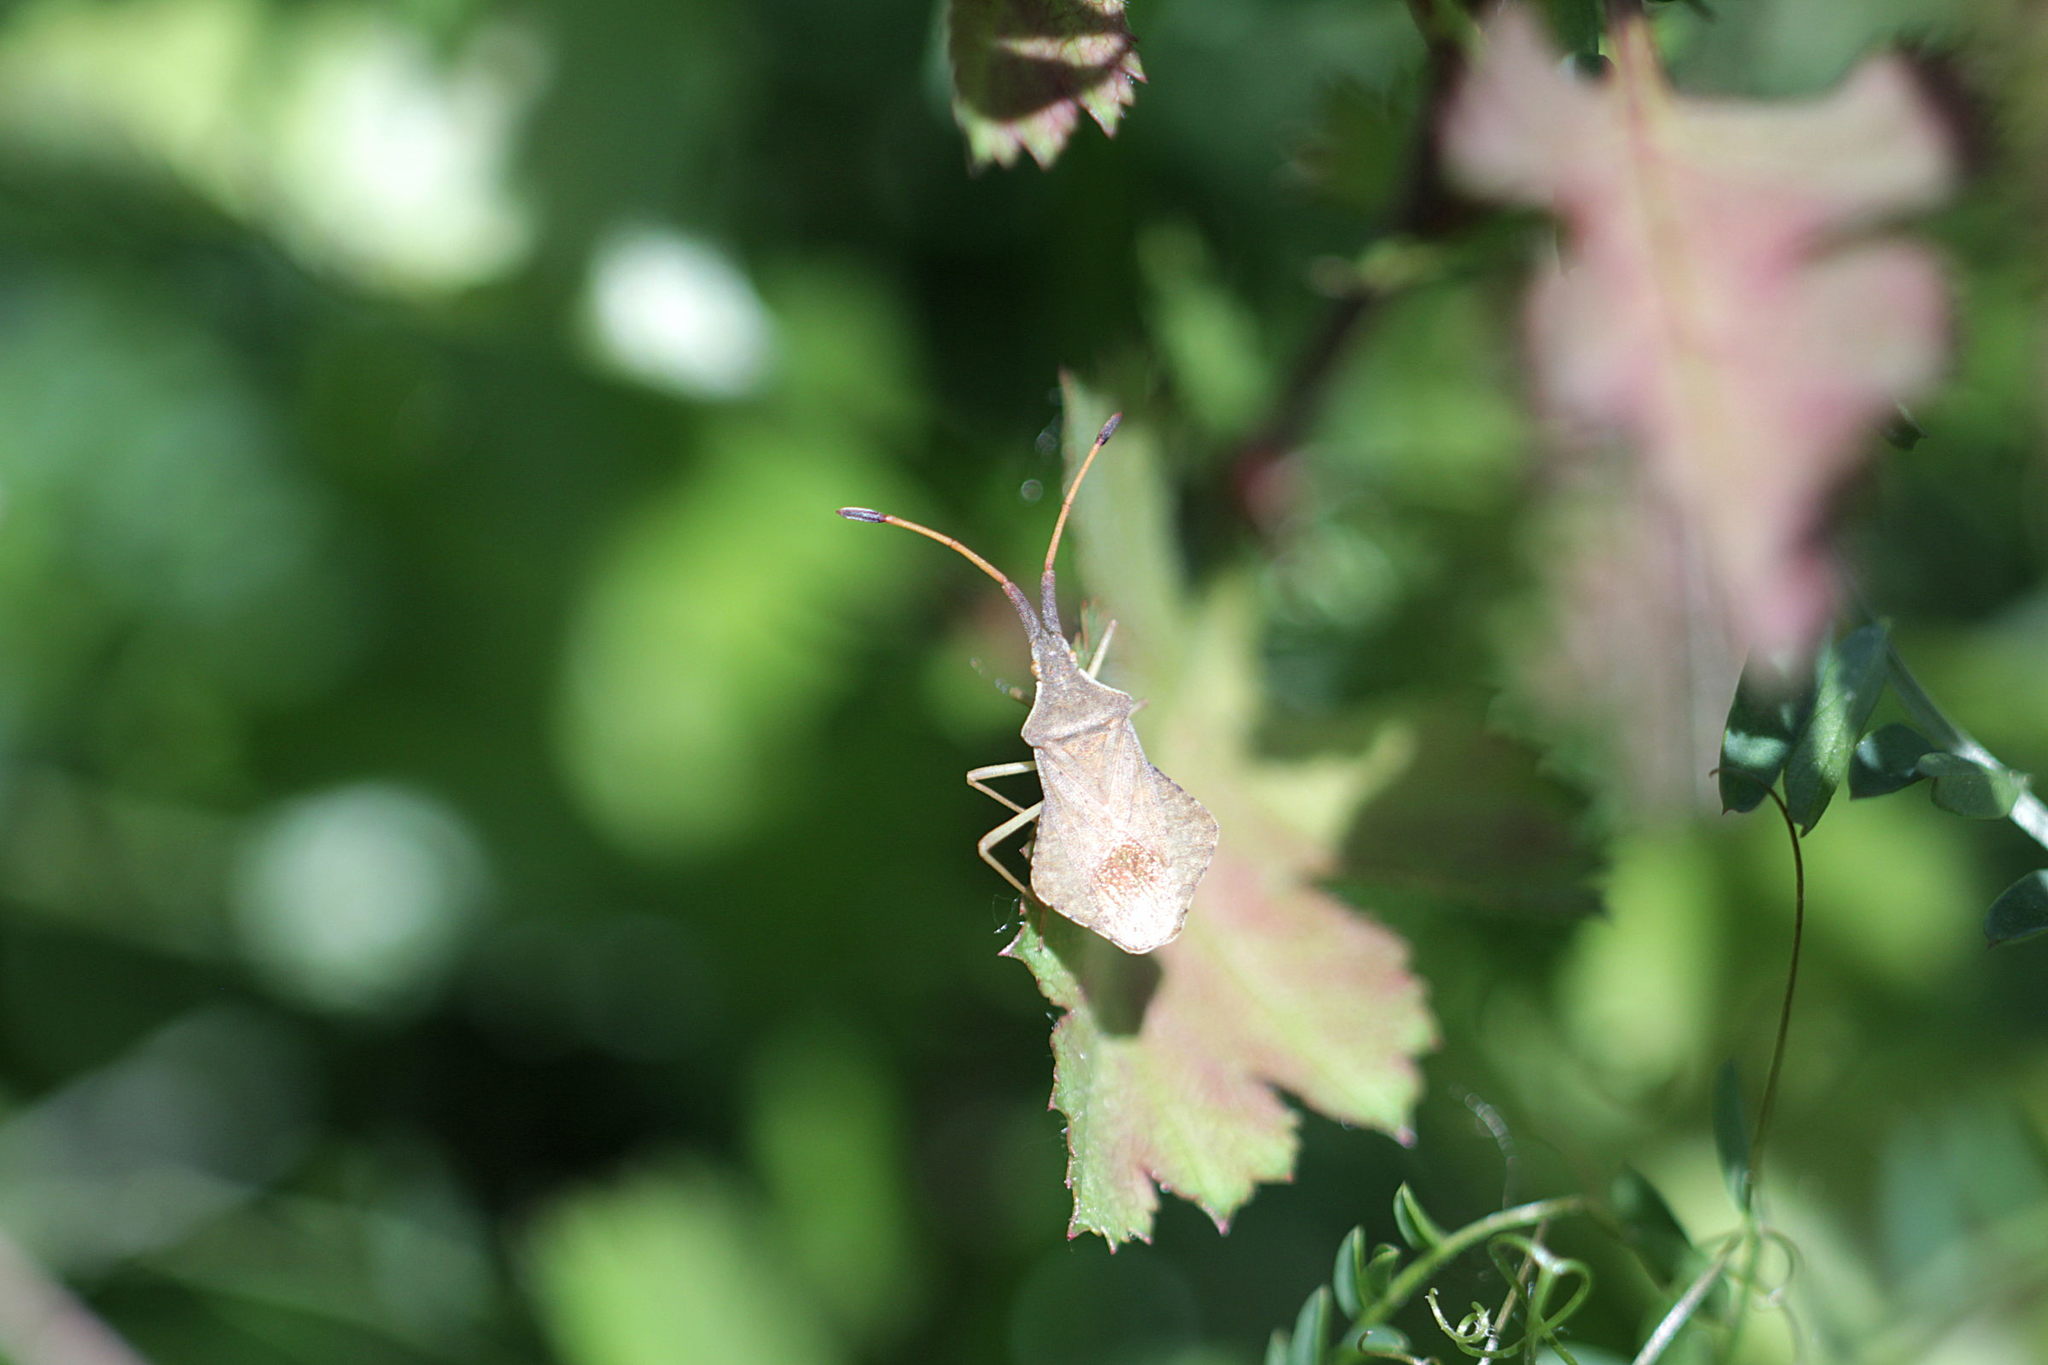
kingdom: Animalia
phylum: Arthropoda
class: Insecta
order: Hemiptera
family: Coreidae
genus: Syromastus
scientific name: Syromastus rhombeus
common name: Rhombic leatherbug
